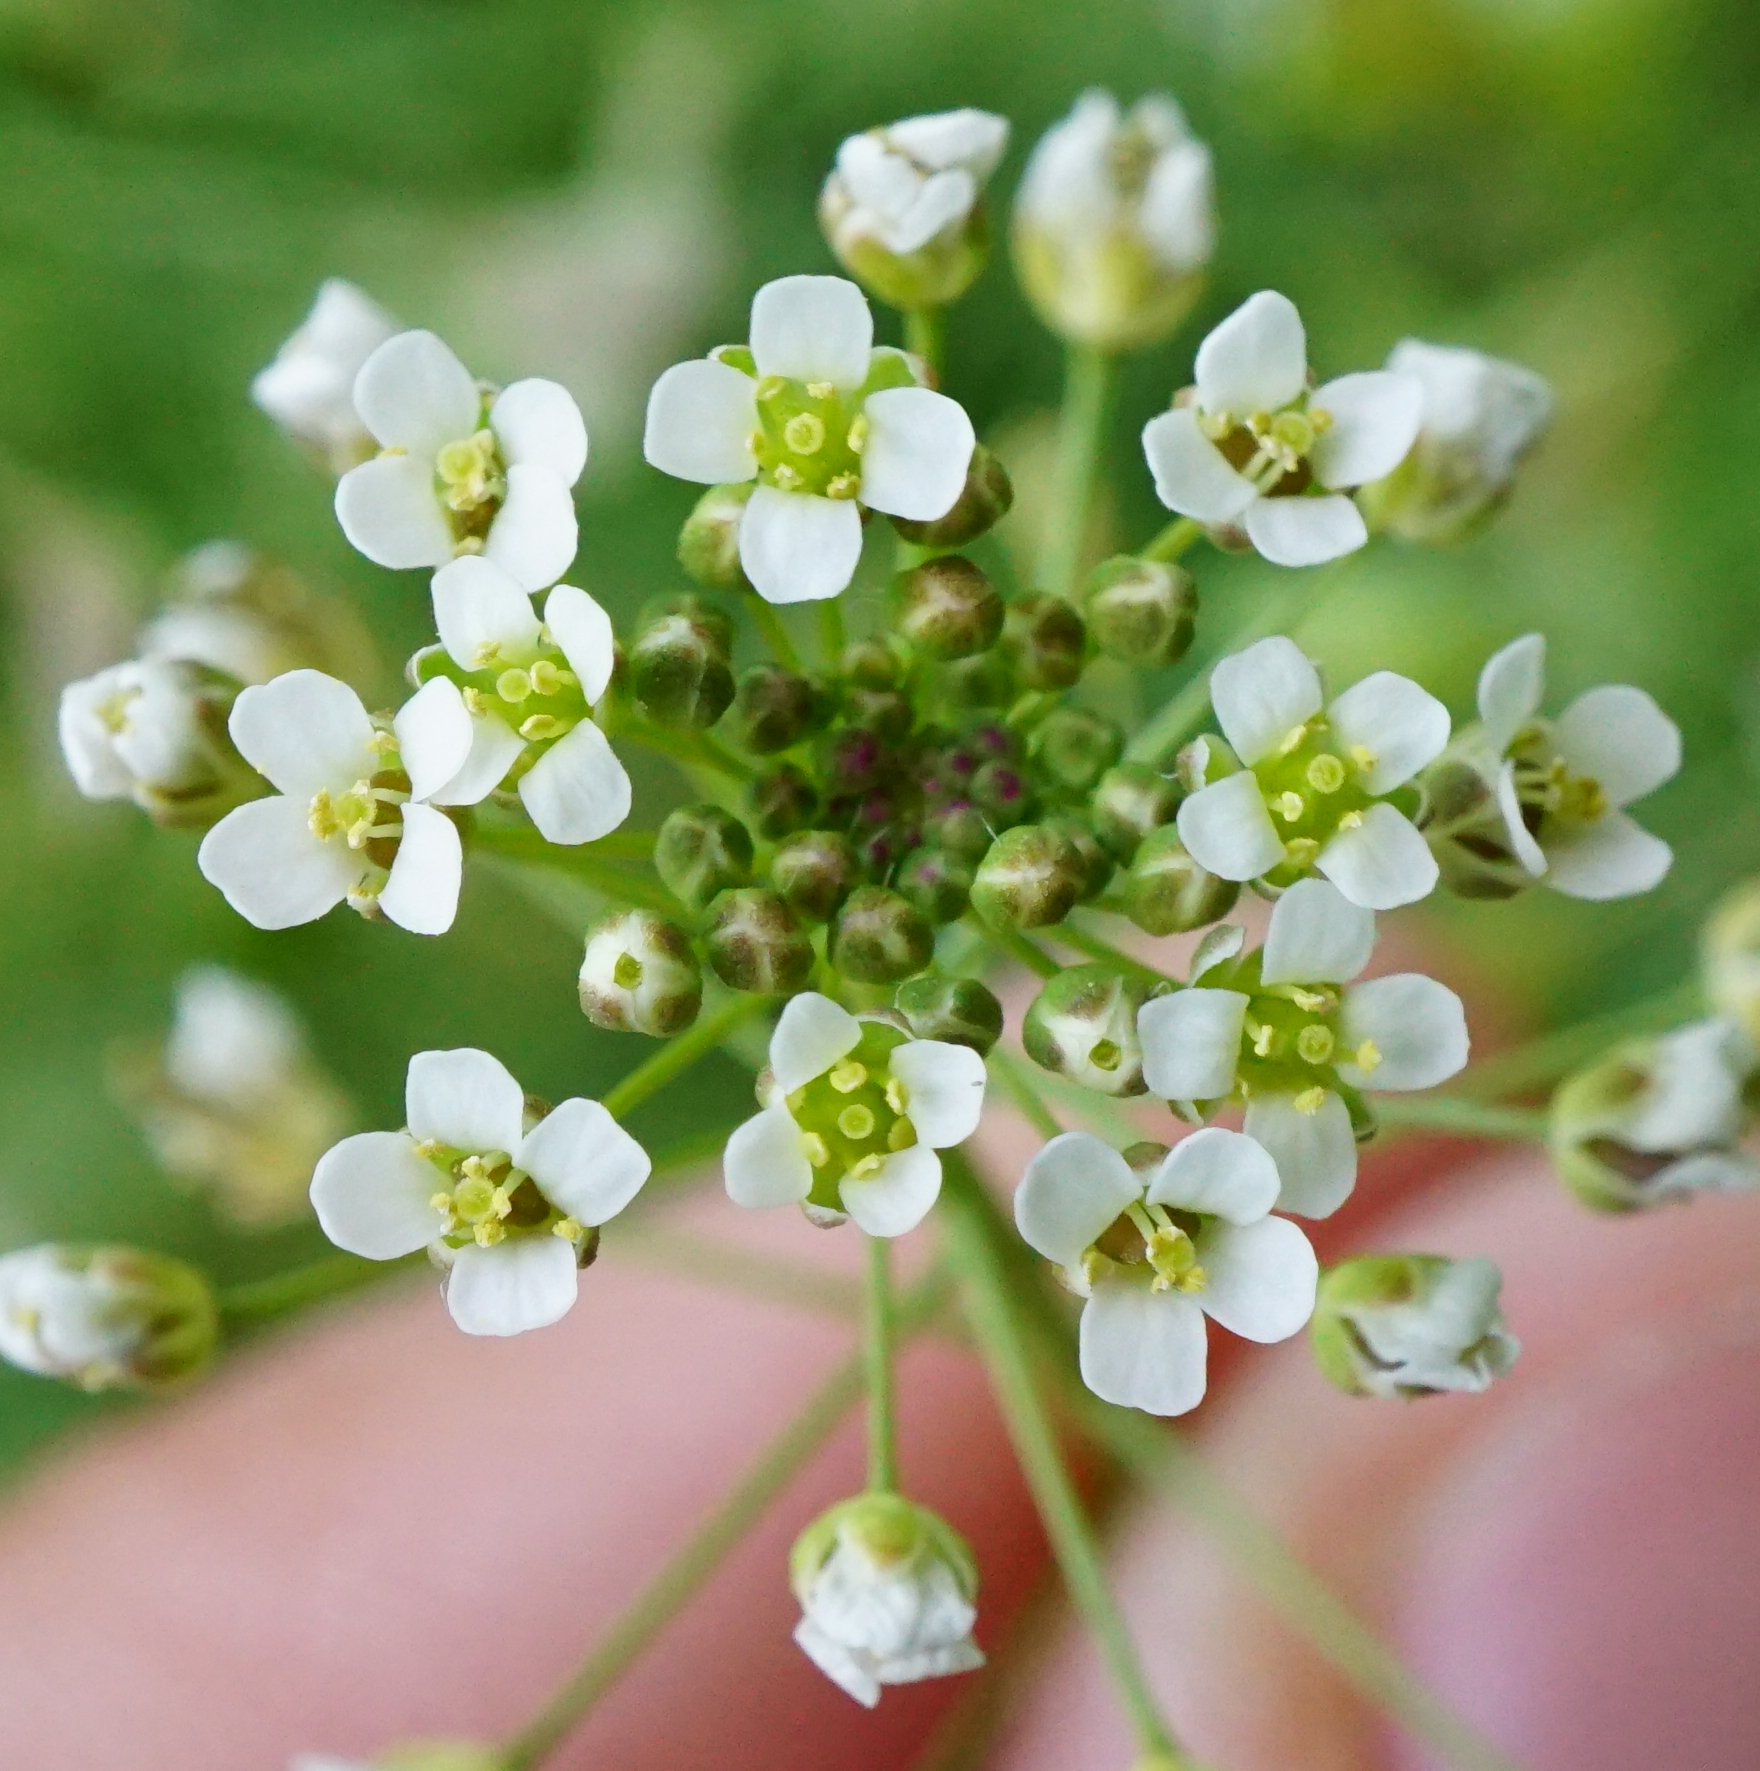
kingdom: Plantae
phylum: Tracheophyta
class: Magnoliopsida
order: Brassicales
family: Brassicaceae
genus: Capsella
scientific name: Capsella bursa-pastoris
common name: Shepherd's purse
